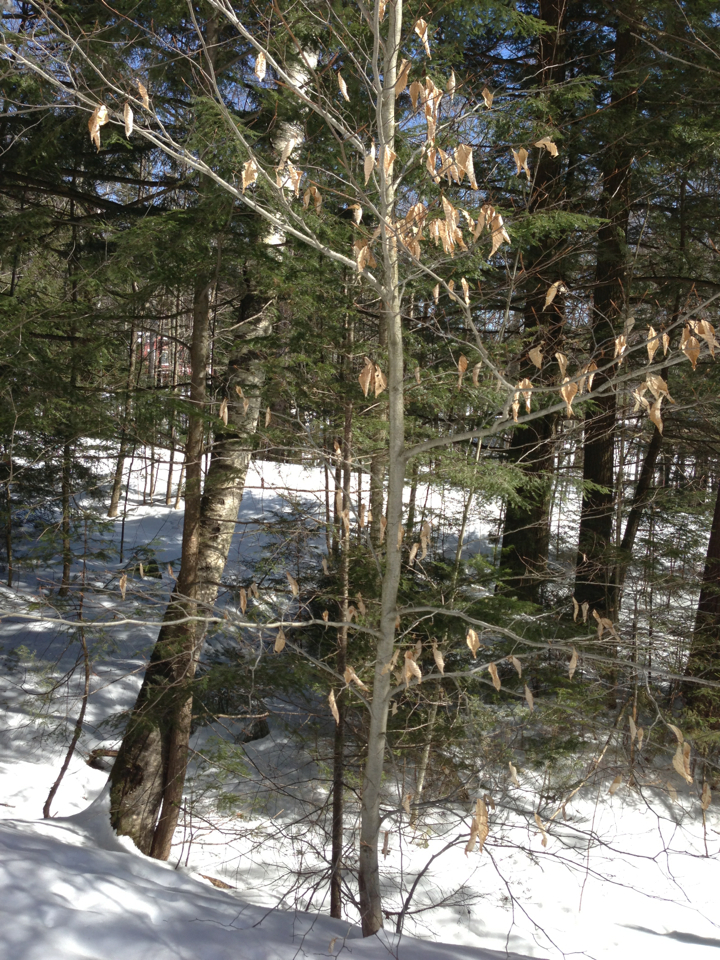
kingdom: Plantae
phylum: Tracheophyta
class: Magnoliopsida
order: Fagales
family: Fagaceae
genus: Fagus
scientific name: Fagus grandifolia
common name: American beech
